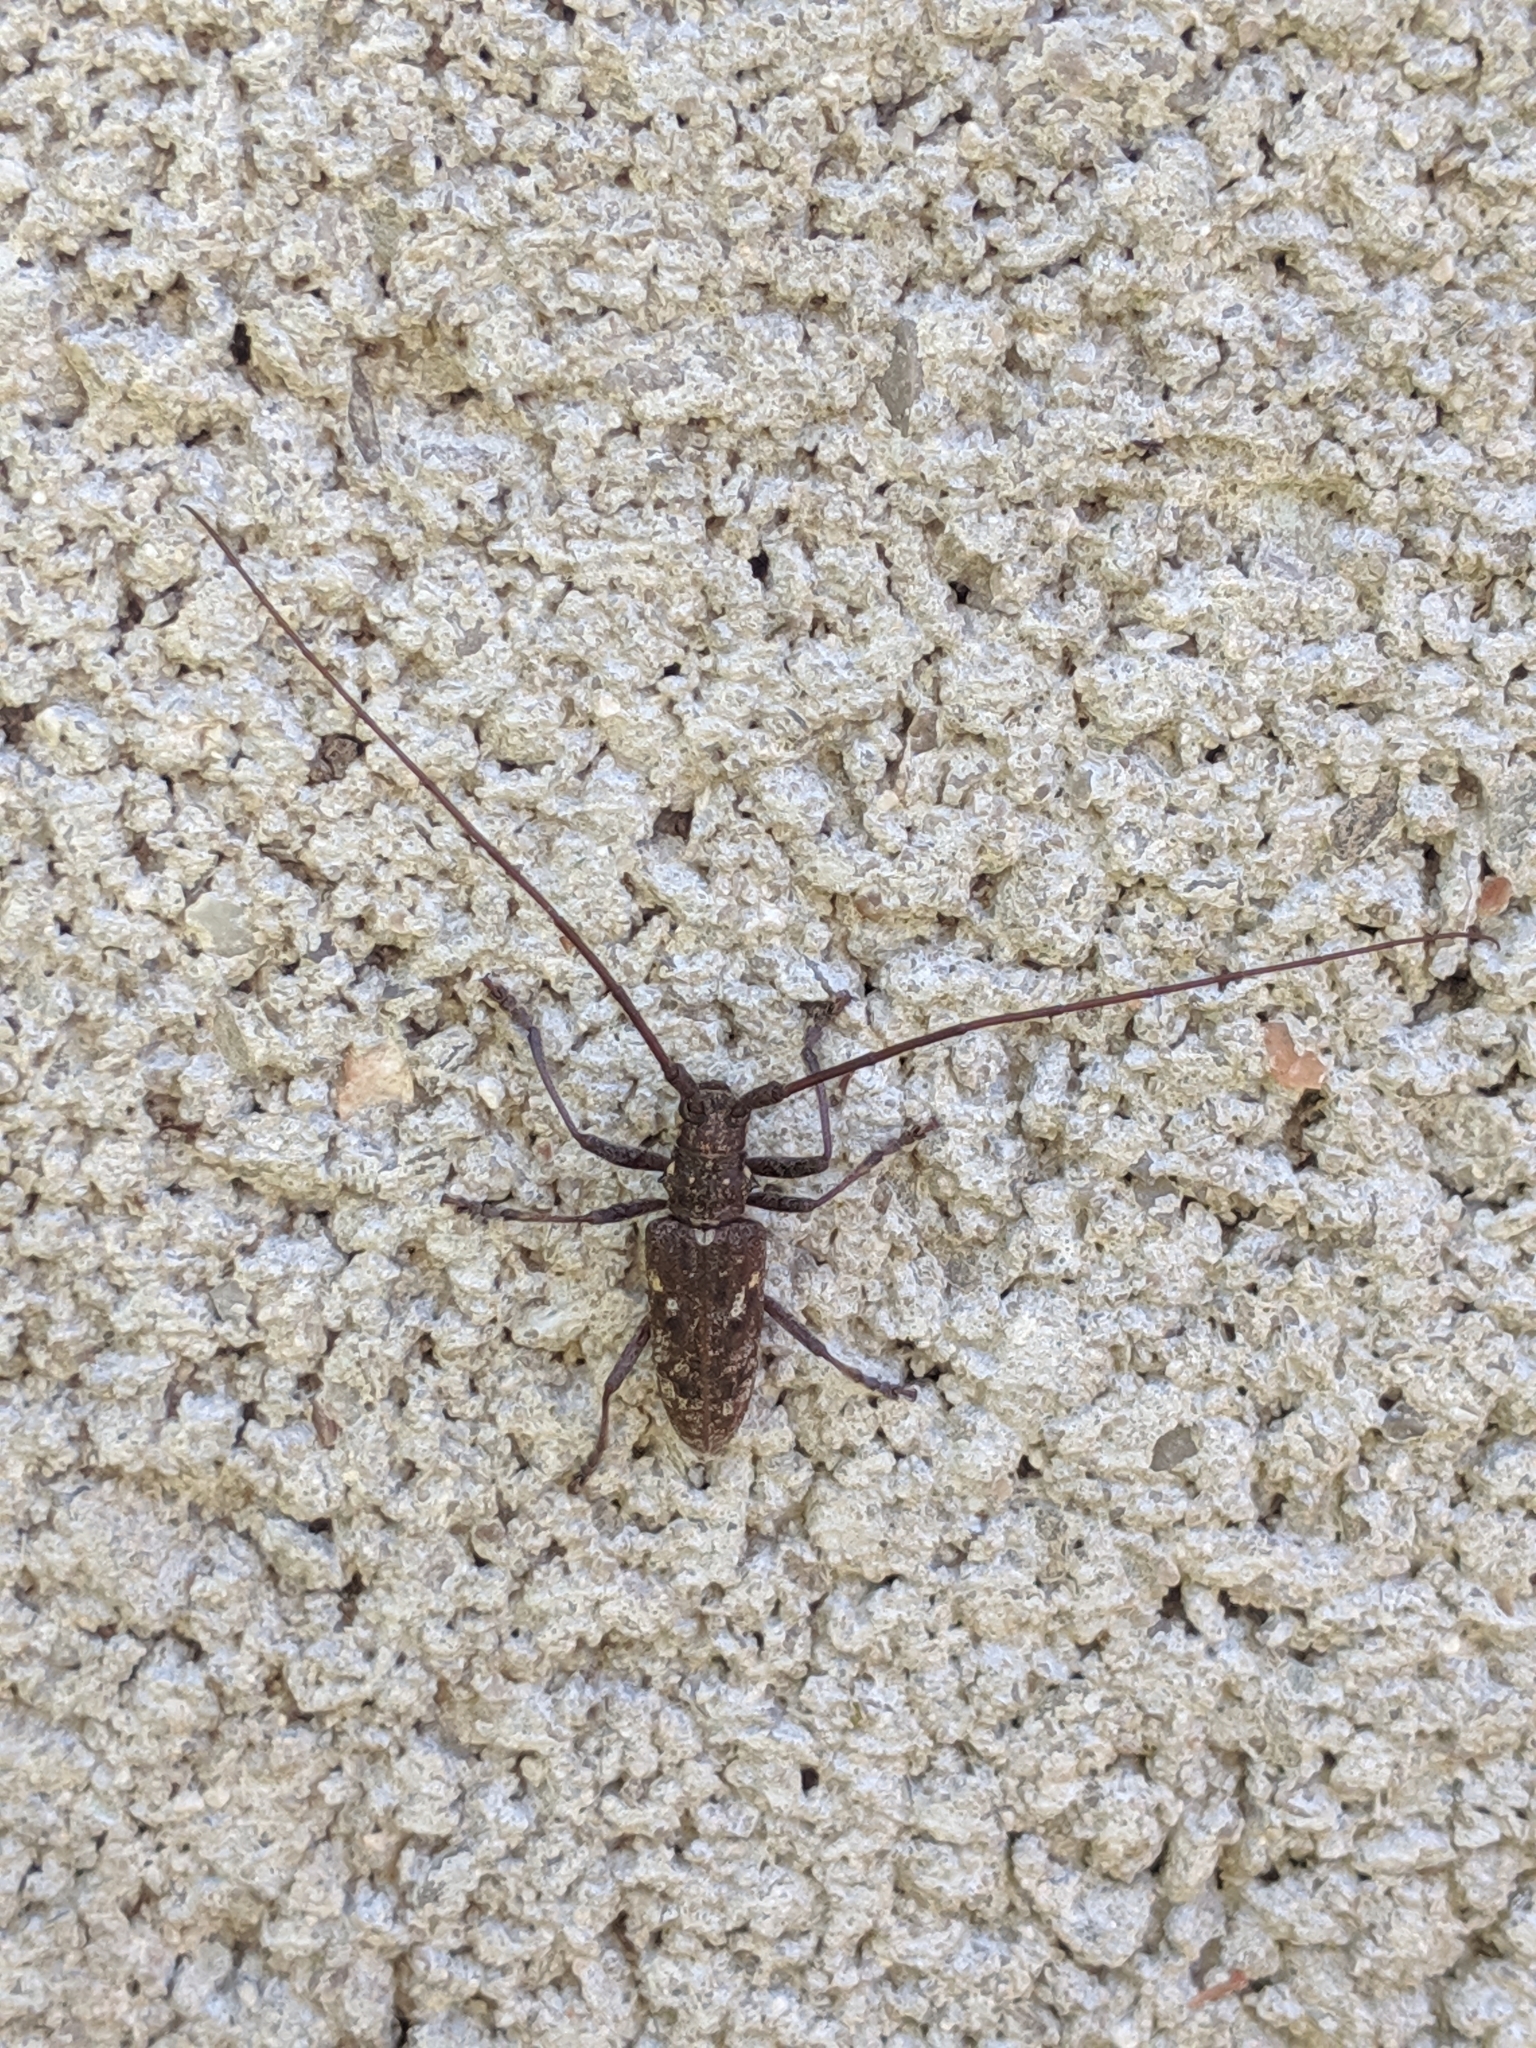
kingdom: Animalia
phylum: Arthropoda
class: Insecta
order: Coleoptera
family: Cerambycidae
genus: Monochamus
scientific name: Monochamus carolinensis
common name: Carolina pine sawyer
